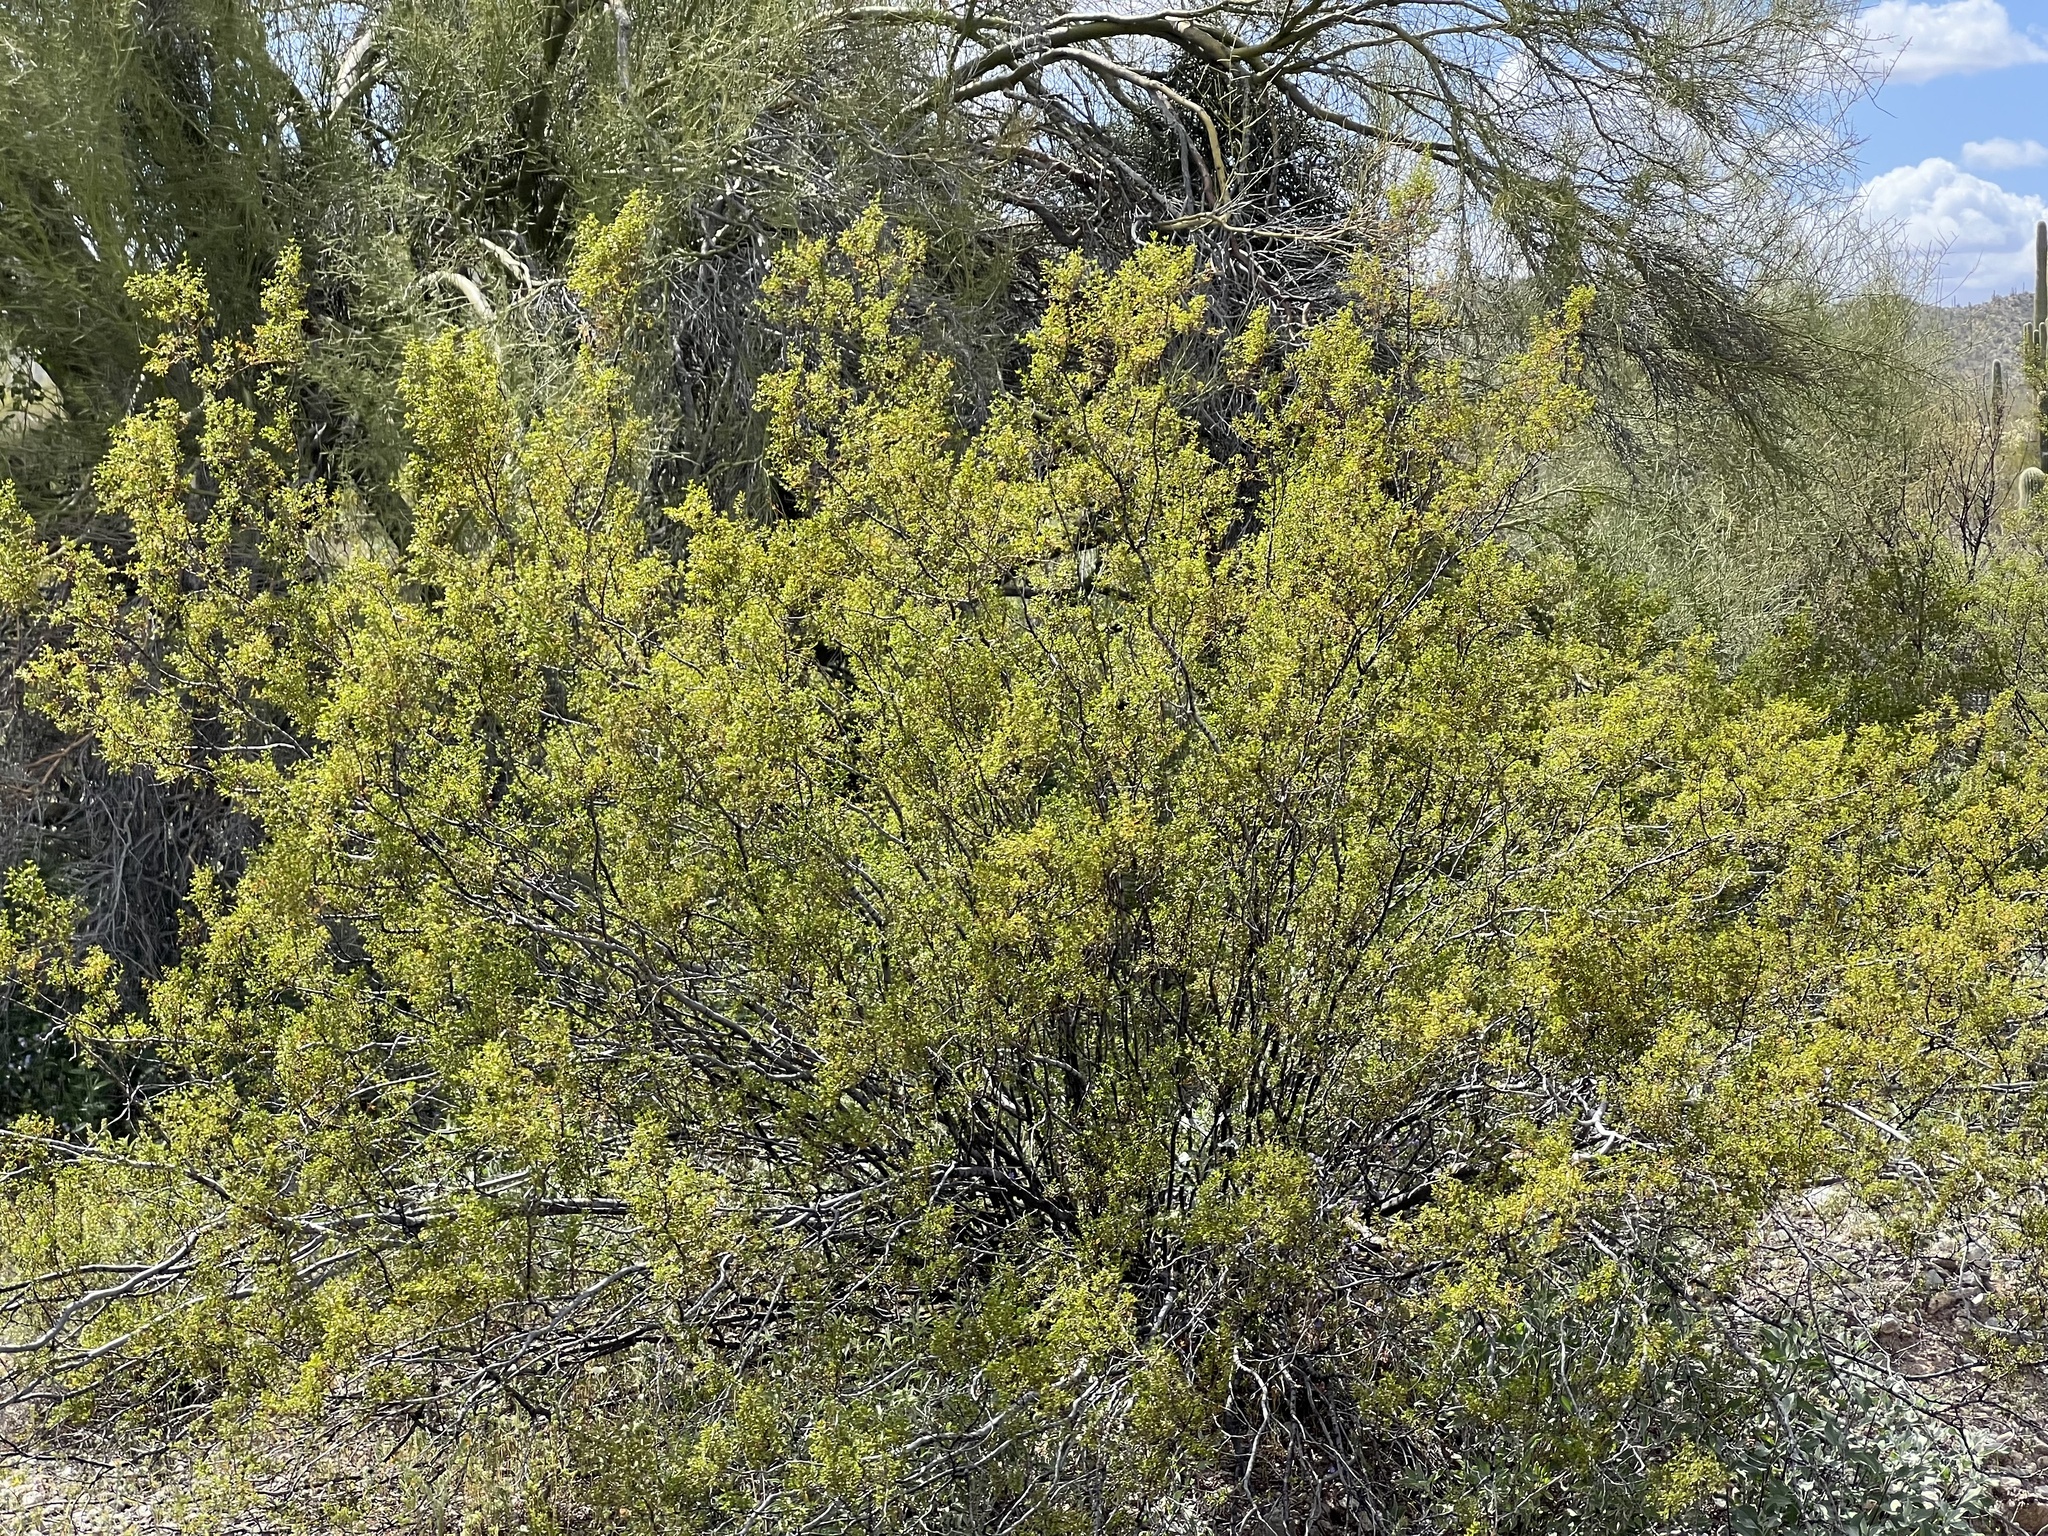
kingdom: Plantae
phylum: Tracheophyta
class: Magnoliopsida
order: Zygophyllales
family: Zygophyllaceae
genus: Larrea
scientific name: Larrea tridentata
